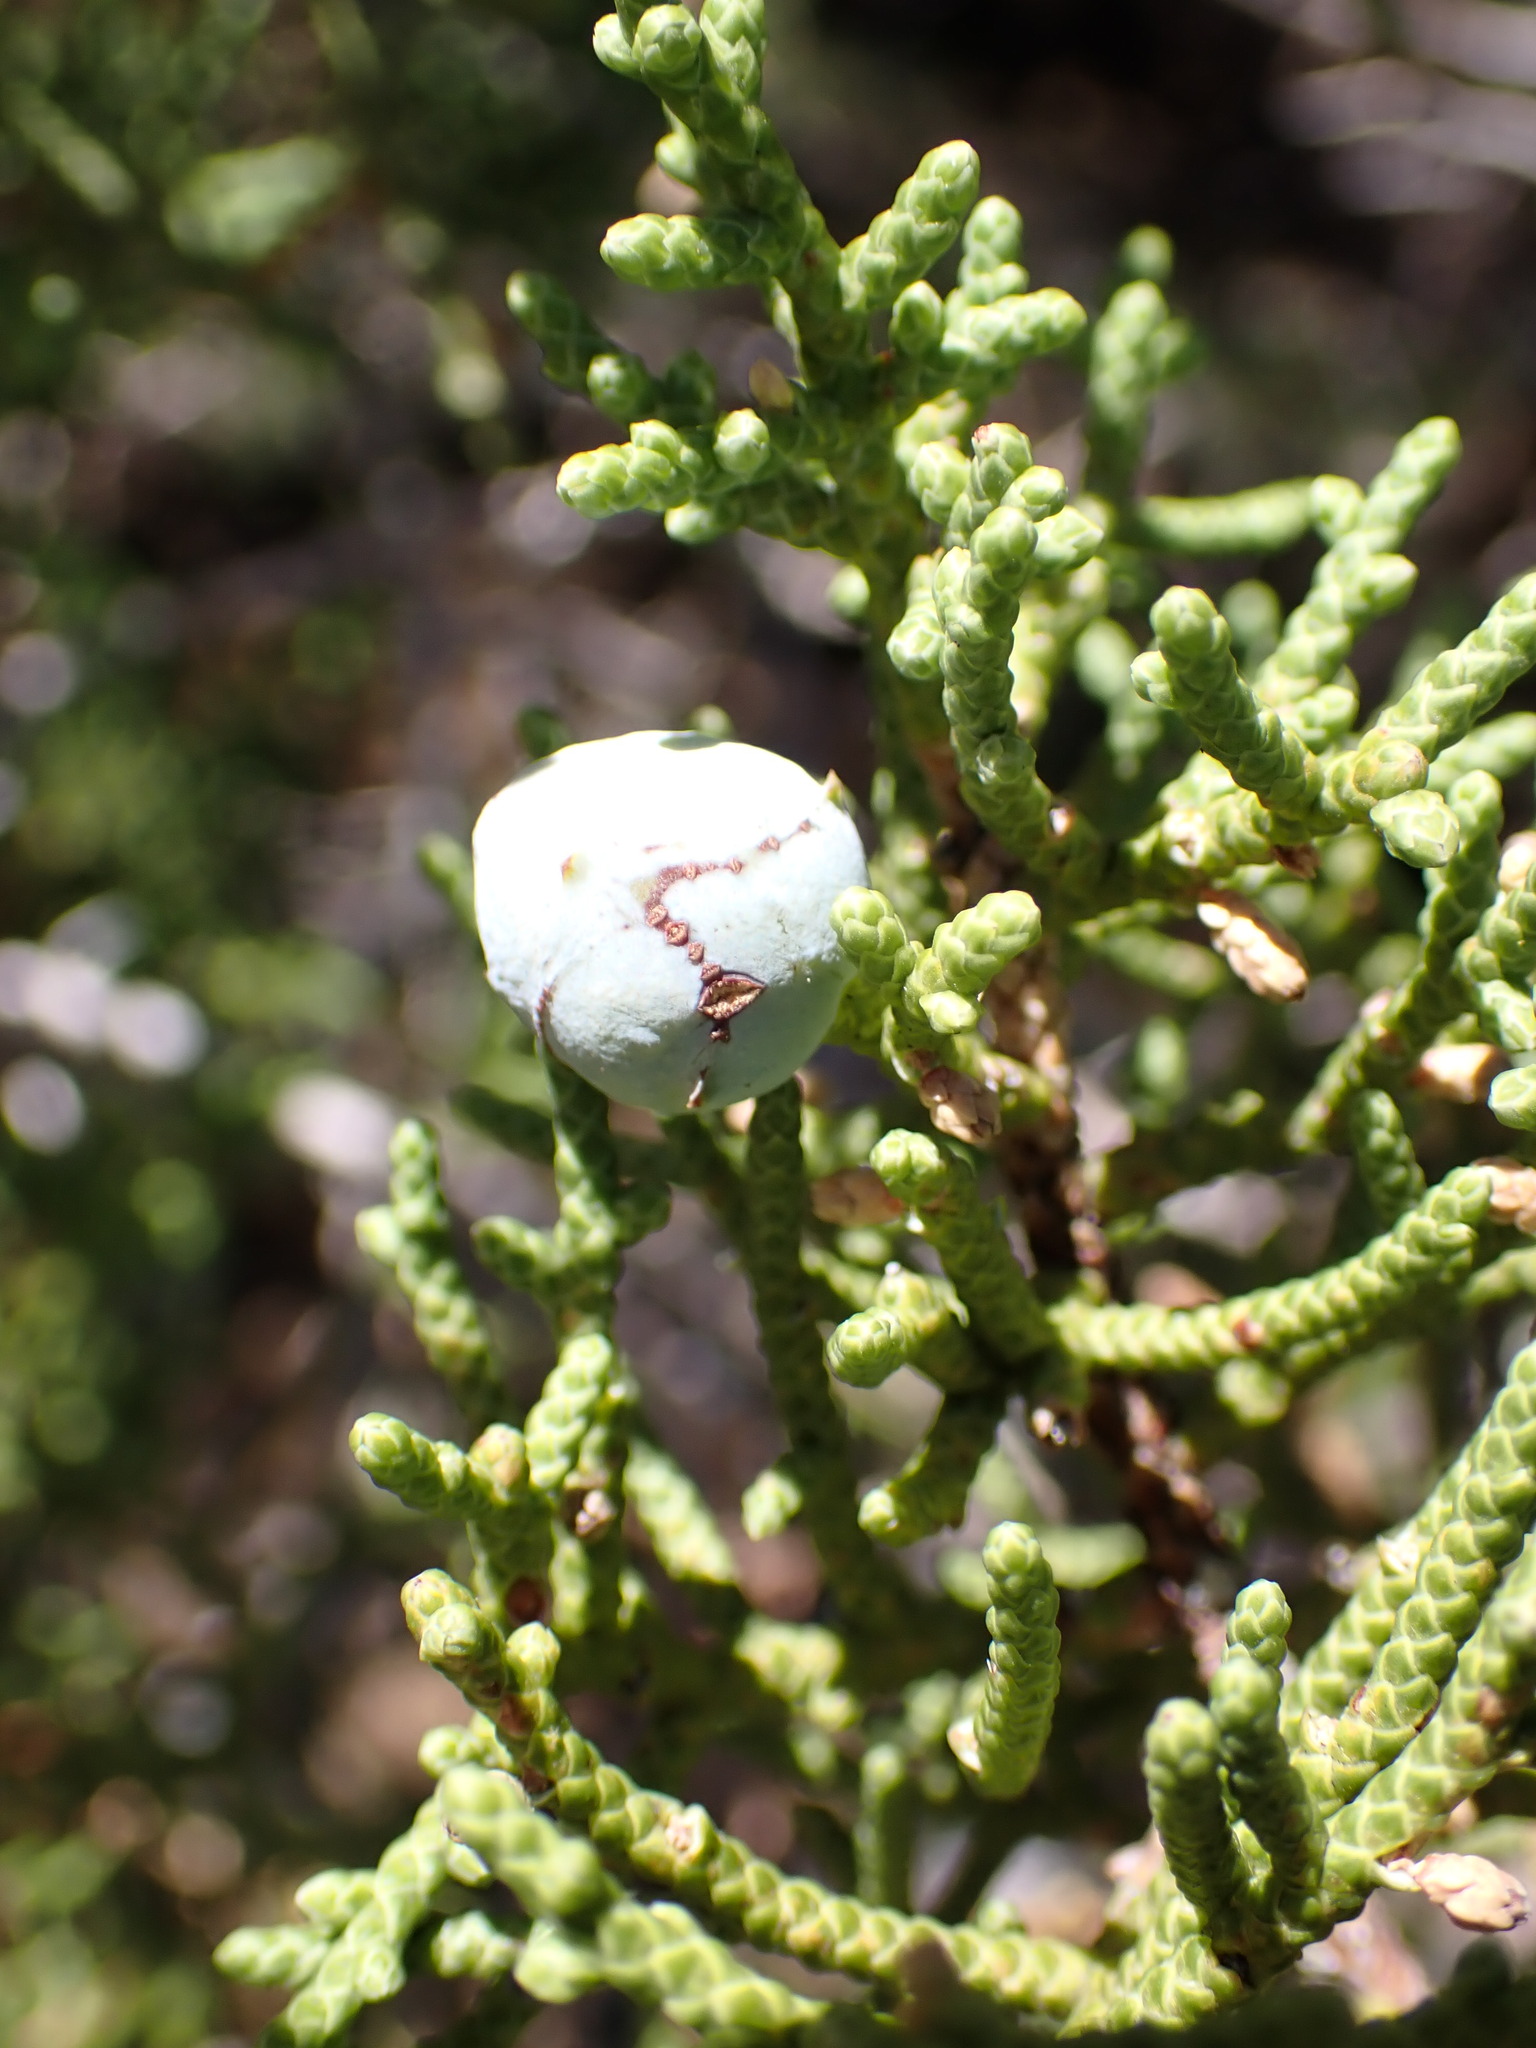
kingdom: Plantae
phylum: Tracheophyta
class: Pinopsida
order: Pinales
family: Cupressaceae
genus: Juniperus
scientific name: Juniperus californica
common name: California juniper
